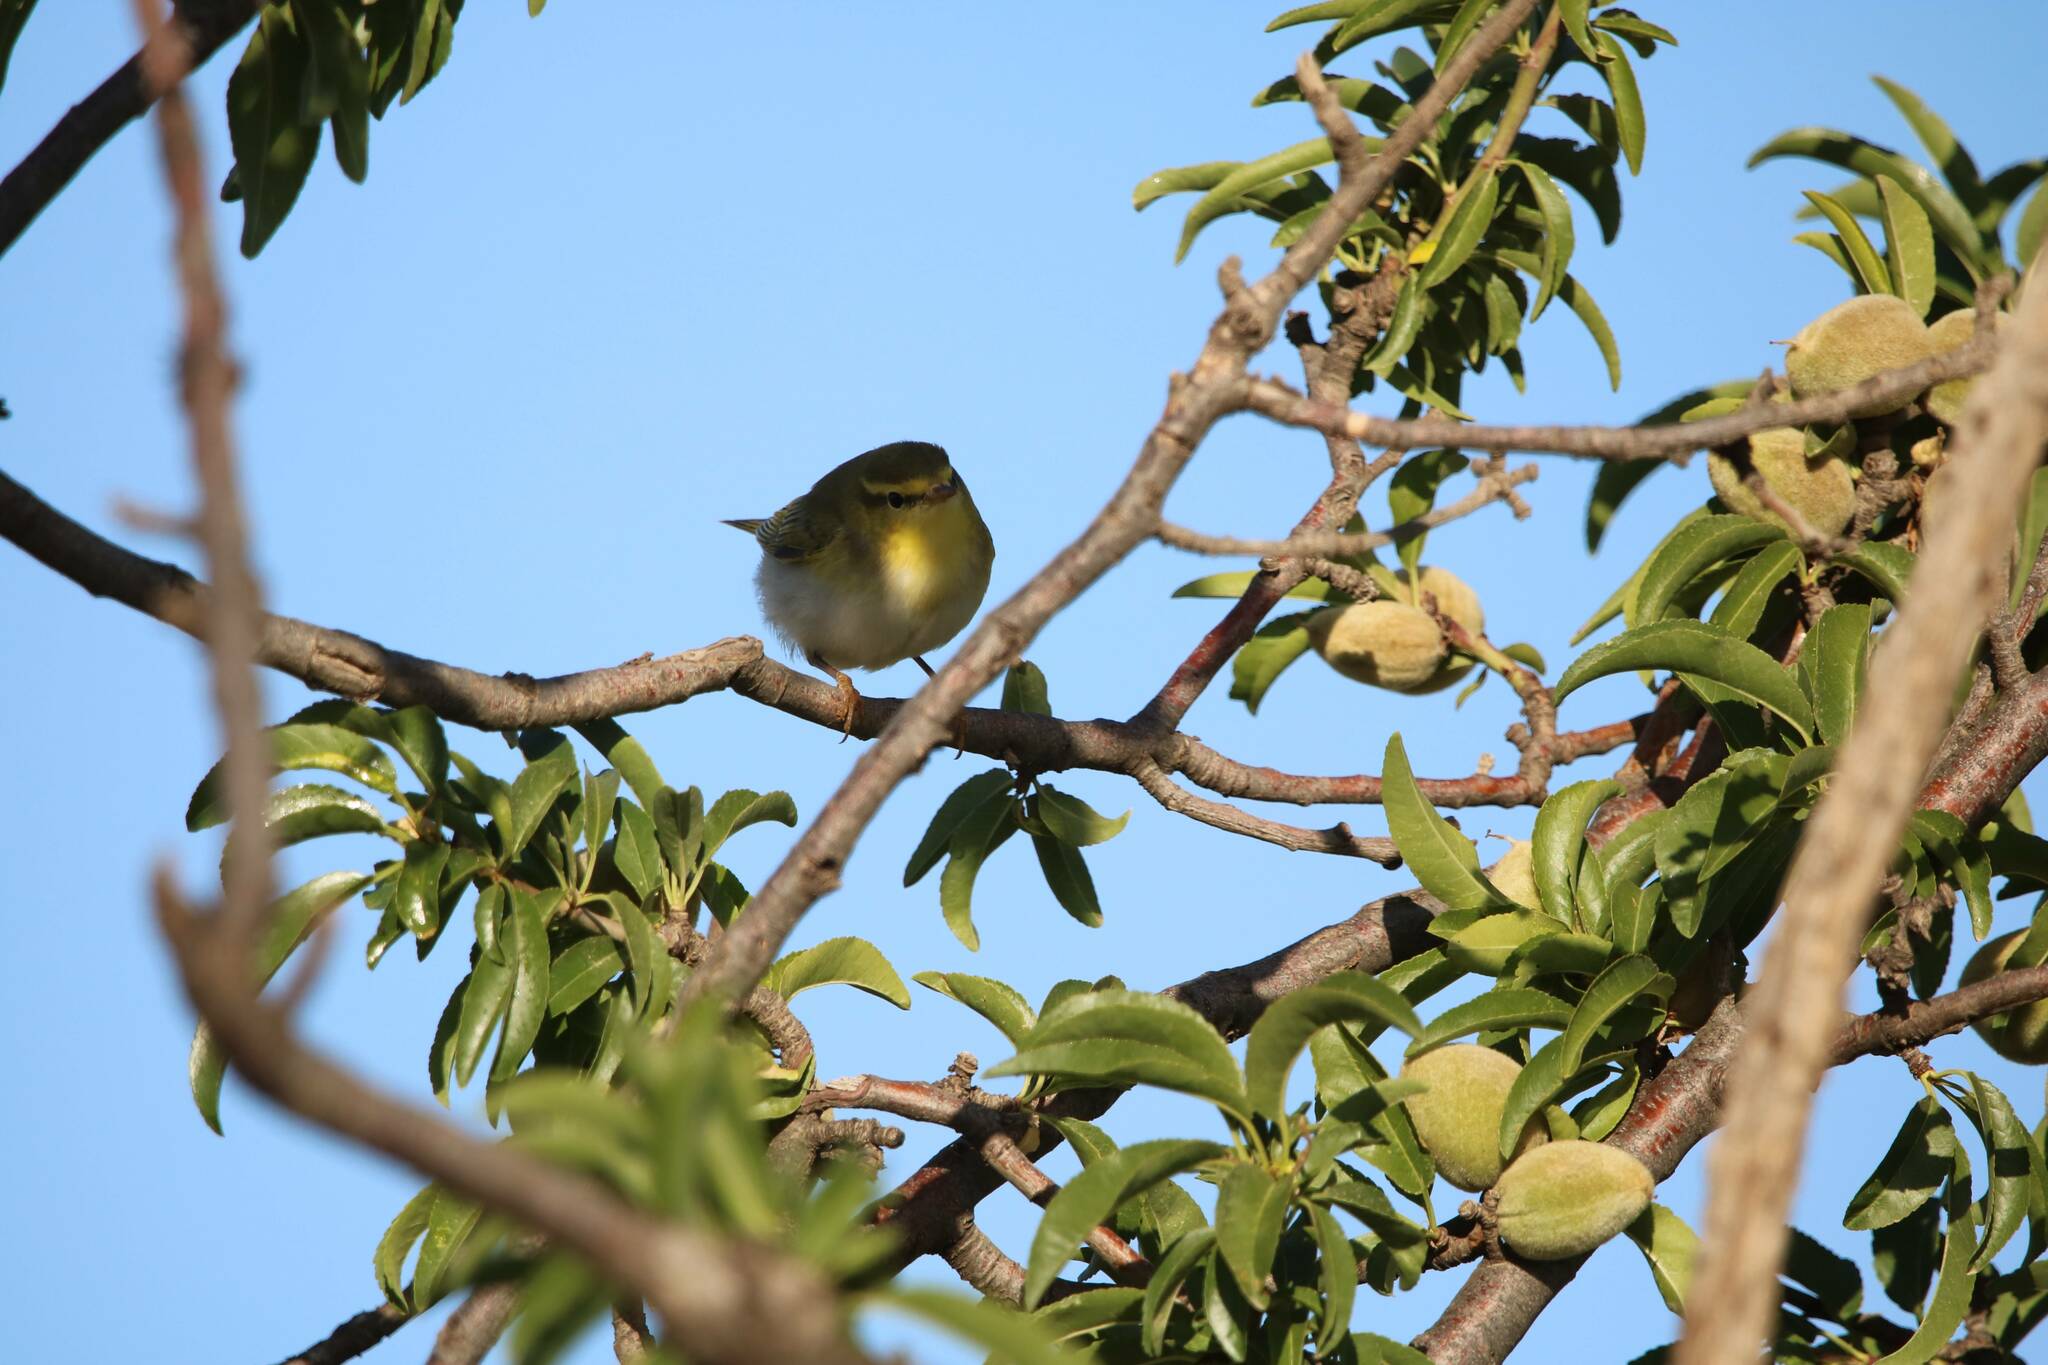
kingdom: Animalia
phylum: Chordata
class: Aves
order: Passeriformes
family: Phylloscopidae
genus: Phylloscopus
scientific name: Phylloscopus sibillatrix
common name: Wood warbler
